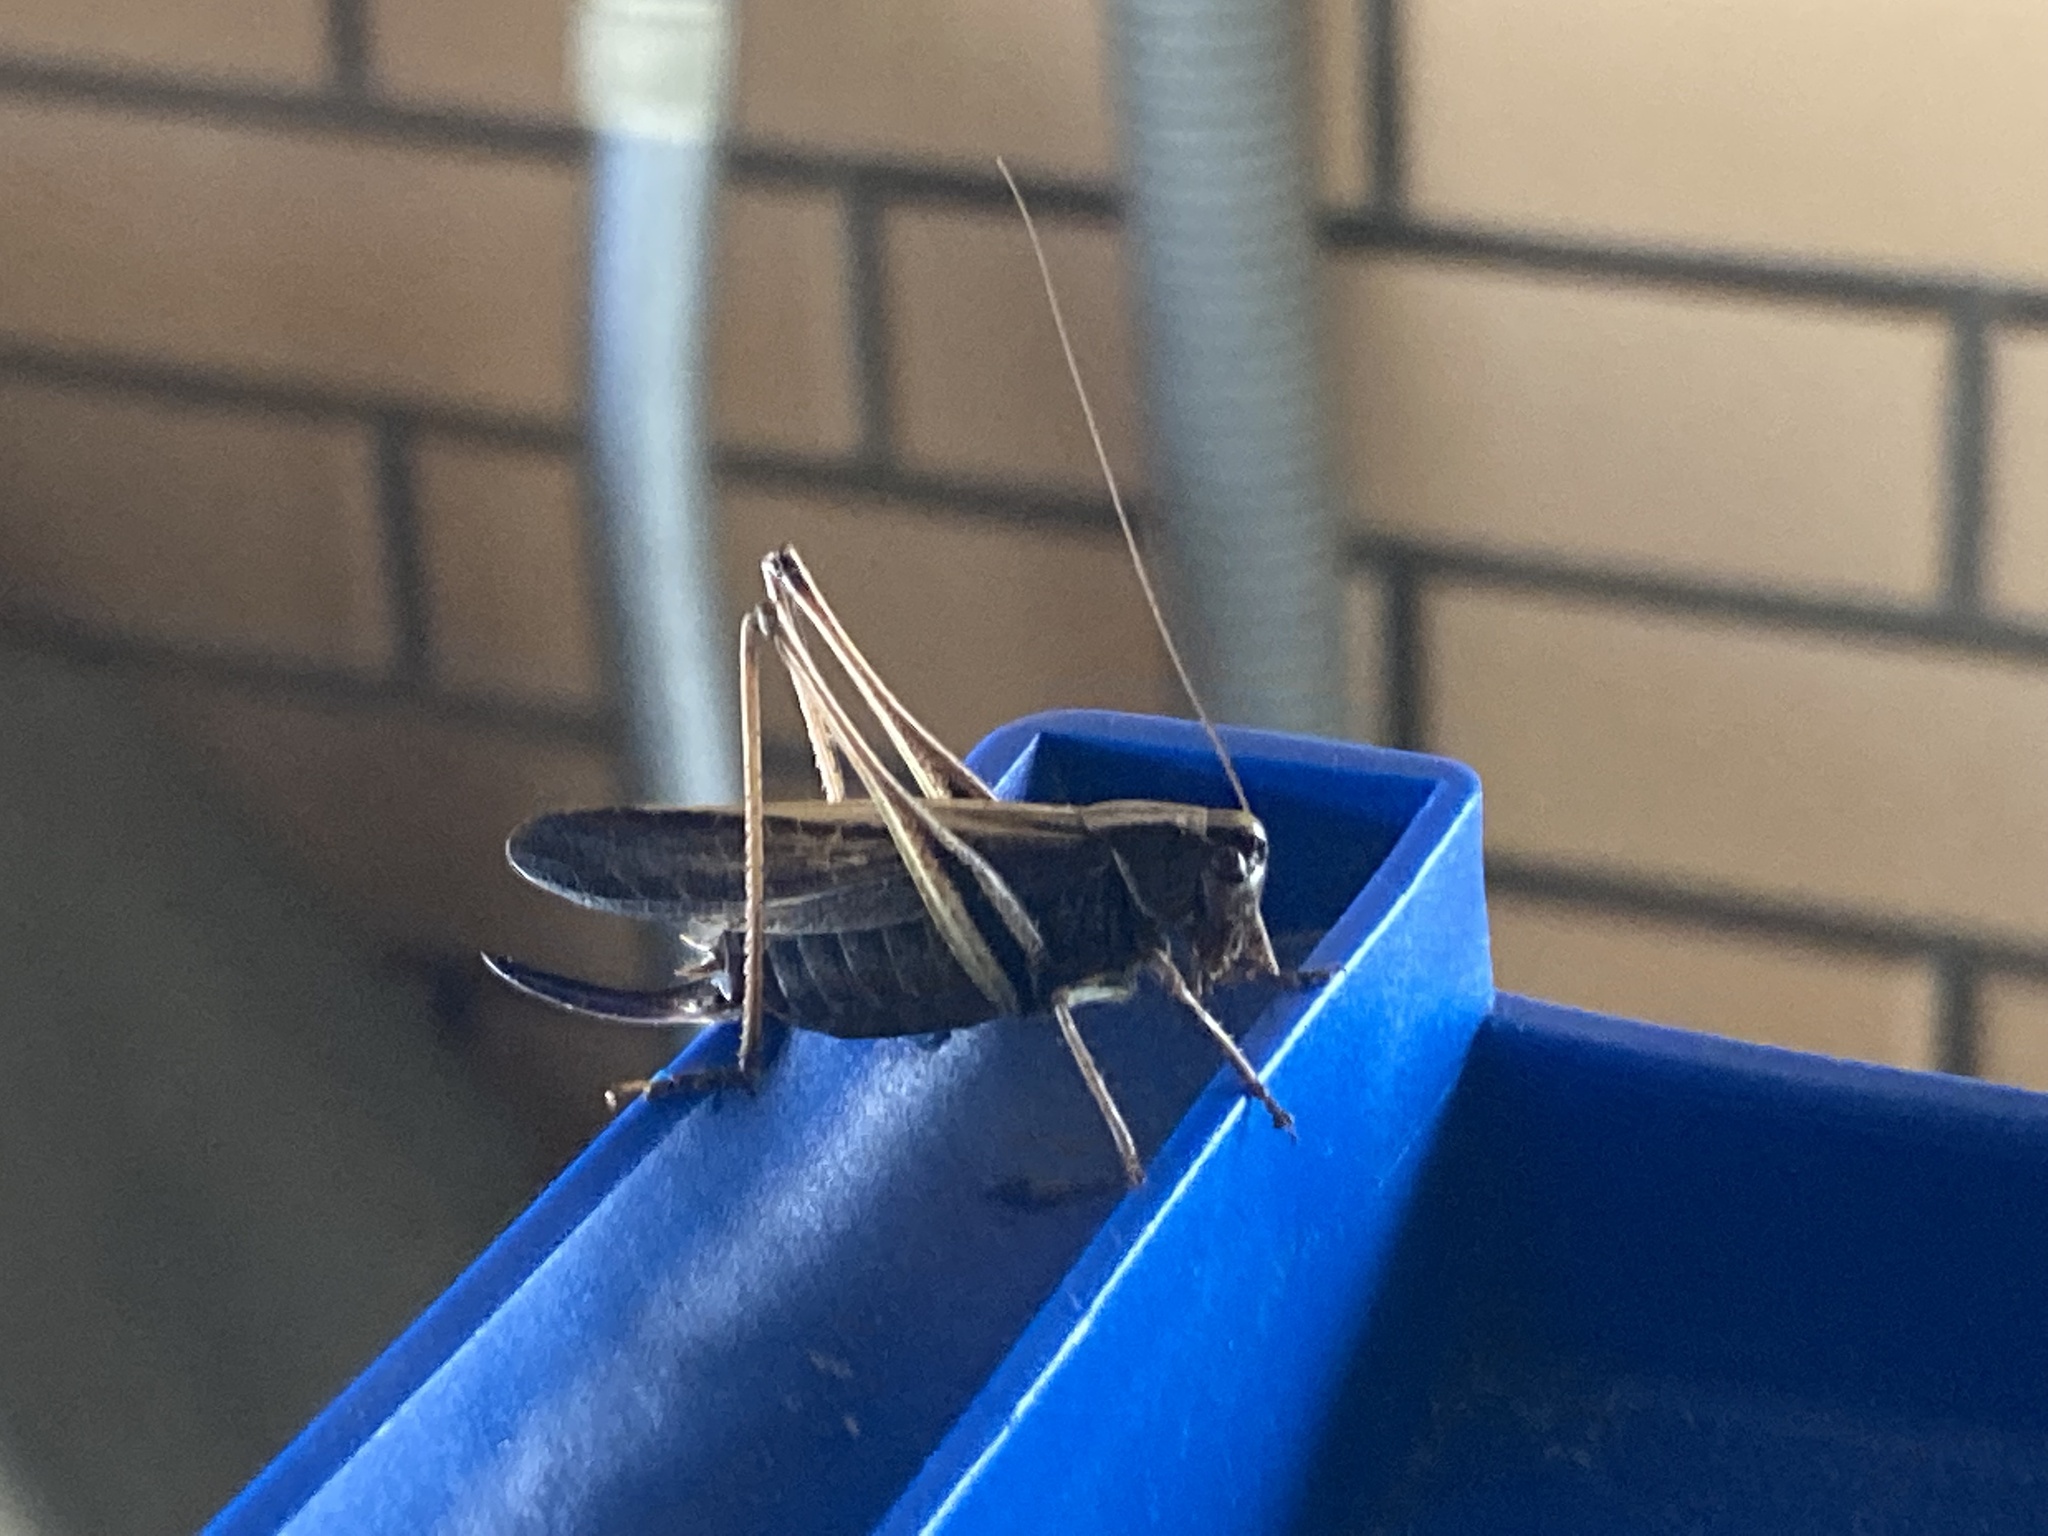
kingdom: Animalia
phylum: Arthropoda
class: Insecta
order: Orthoptera
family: Tettigoniidae
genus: Metrioptera
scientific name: Metrioptera brachyptera
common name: Bog bush-cricket
